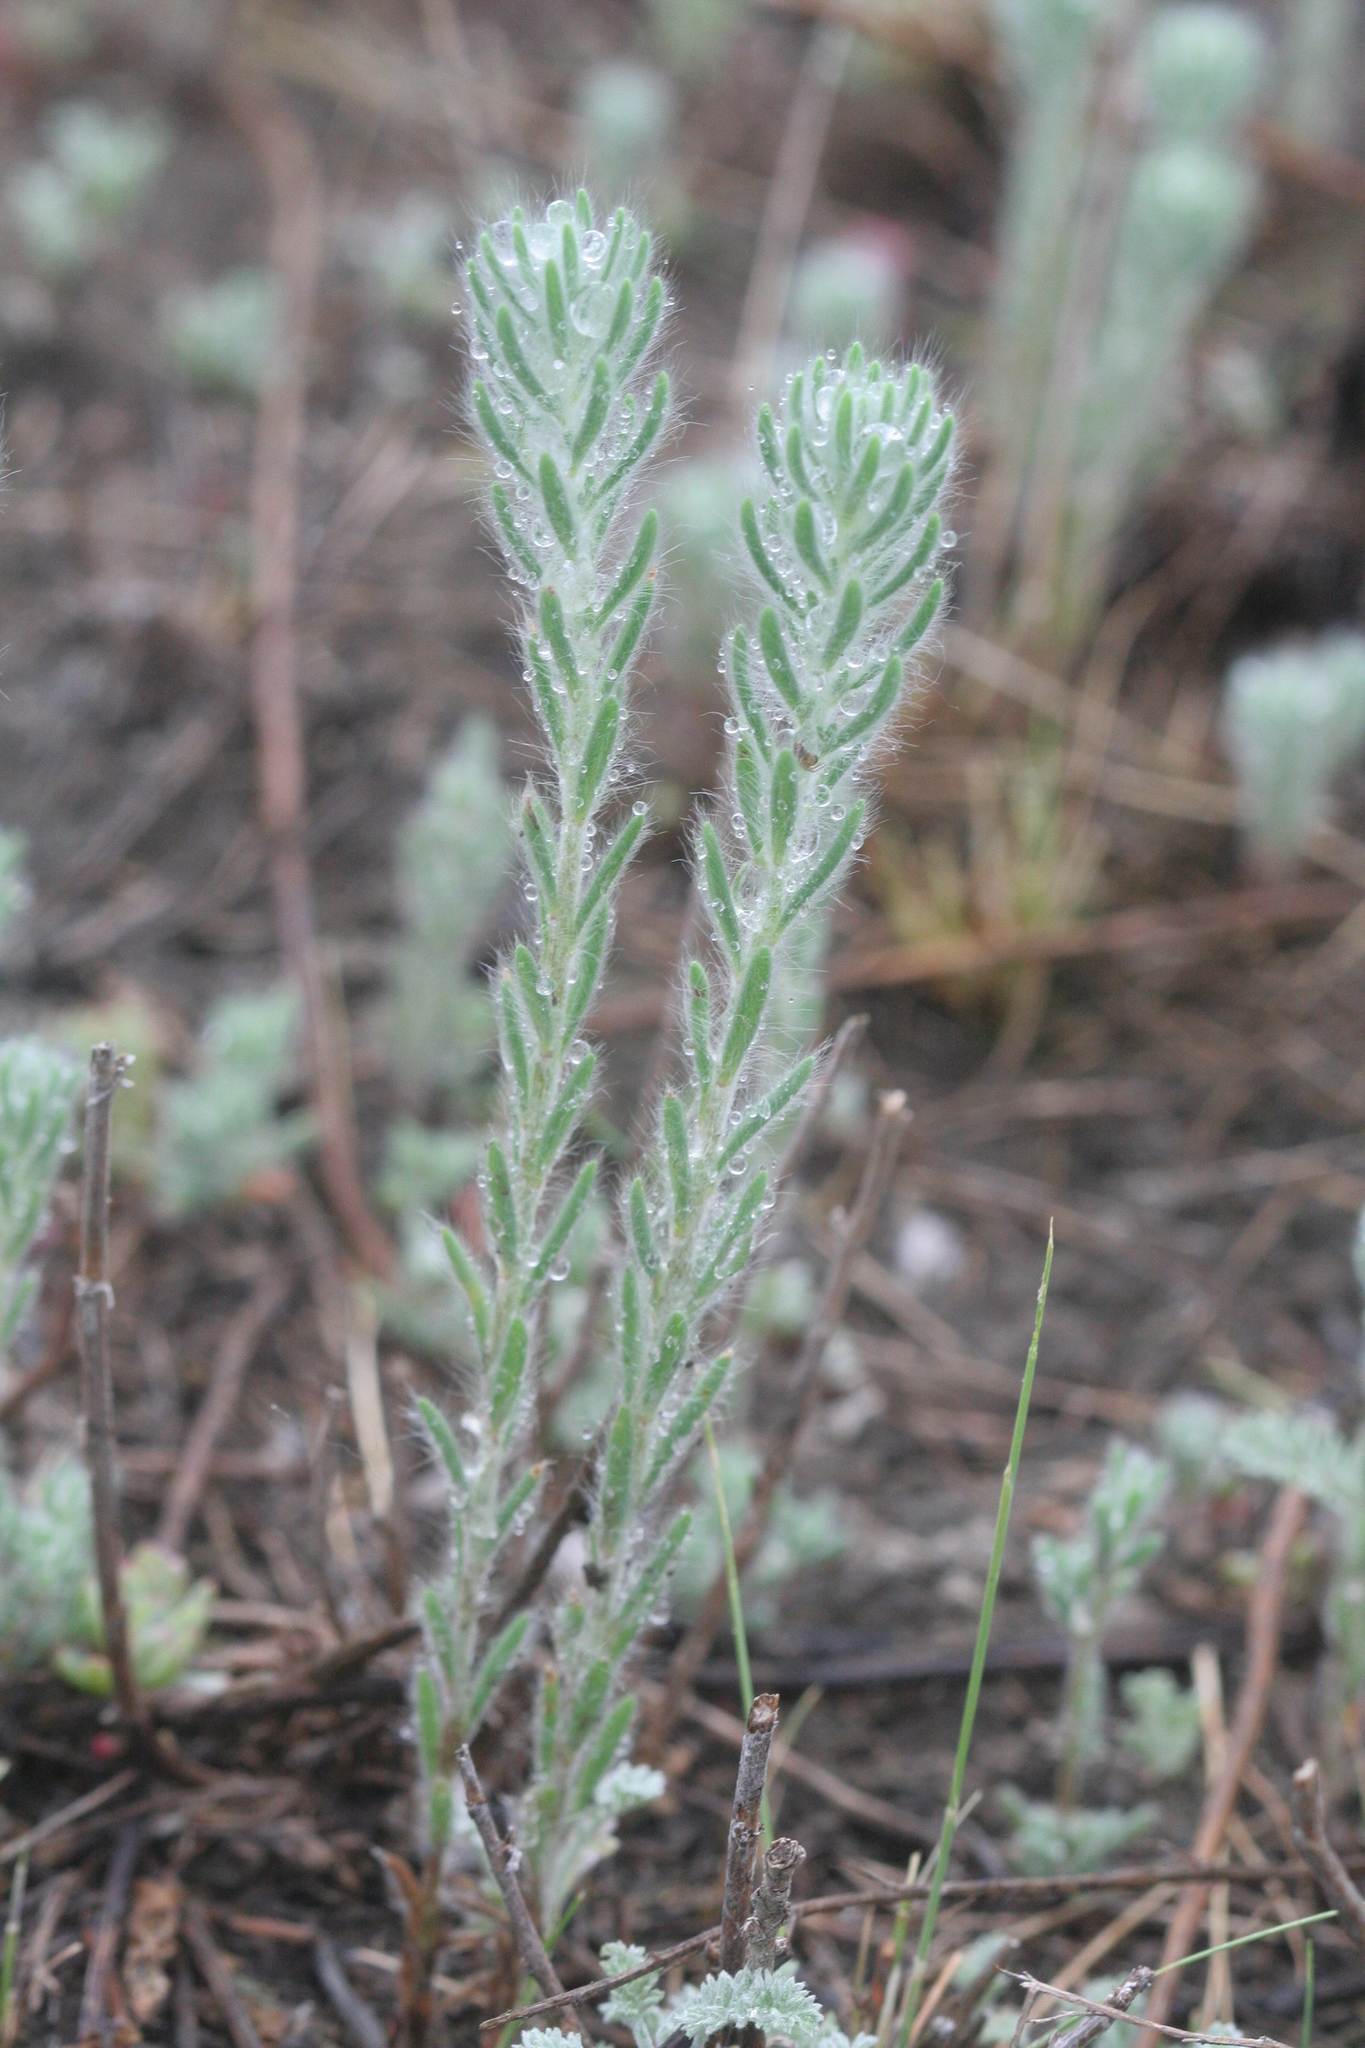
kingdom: Plantae
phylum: Tracheophyta
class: Magnoliopsida
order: Caryophyllales
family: Amaranthaceae
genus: Sedobassia
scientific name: Sedobassia sedoides
